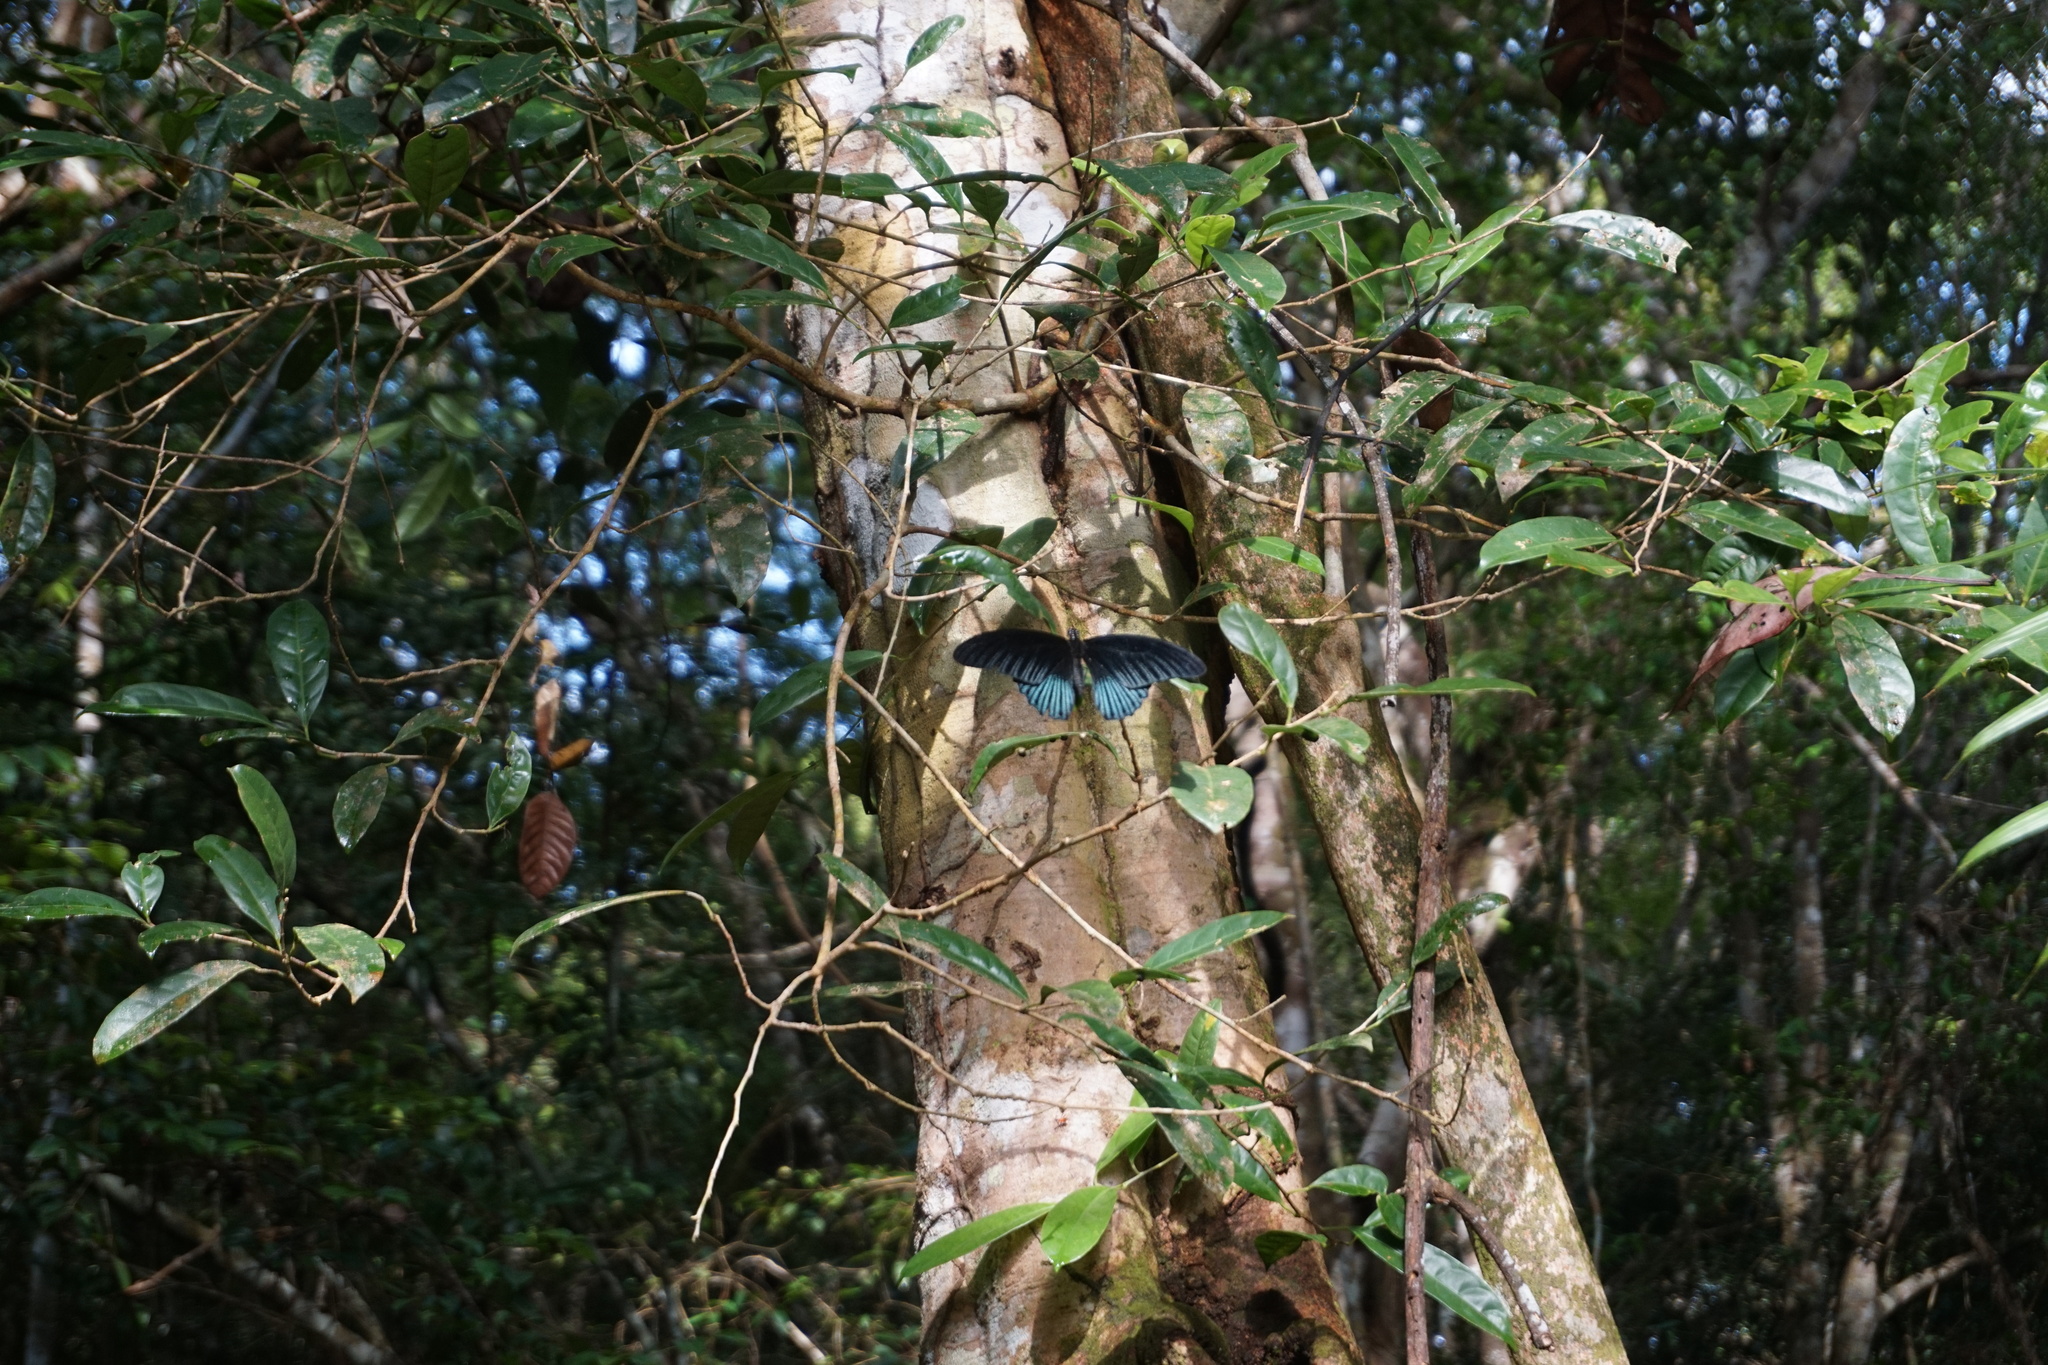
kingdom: Animalia
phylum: Arthropoda
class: Insecta
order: Lepidoptera
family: Papilionidae
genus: Papilio
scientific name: Papilio memnon
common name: Great mormon
